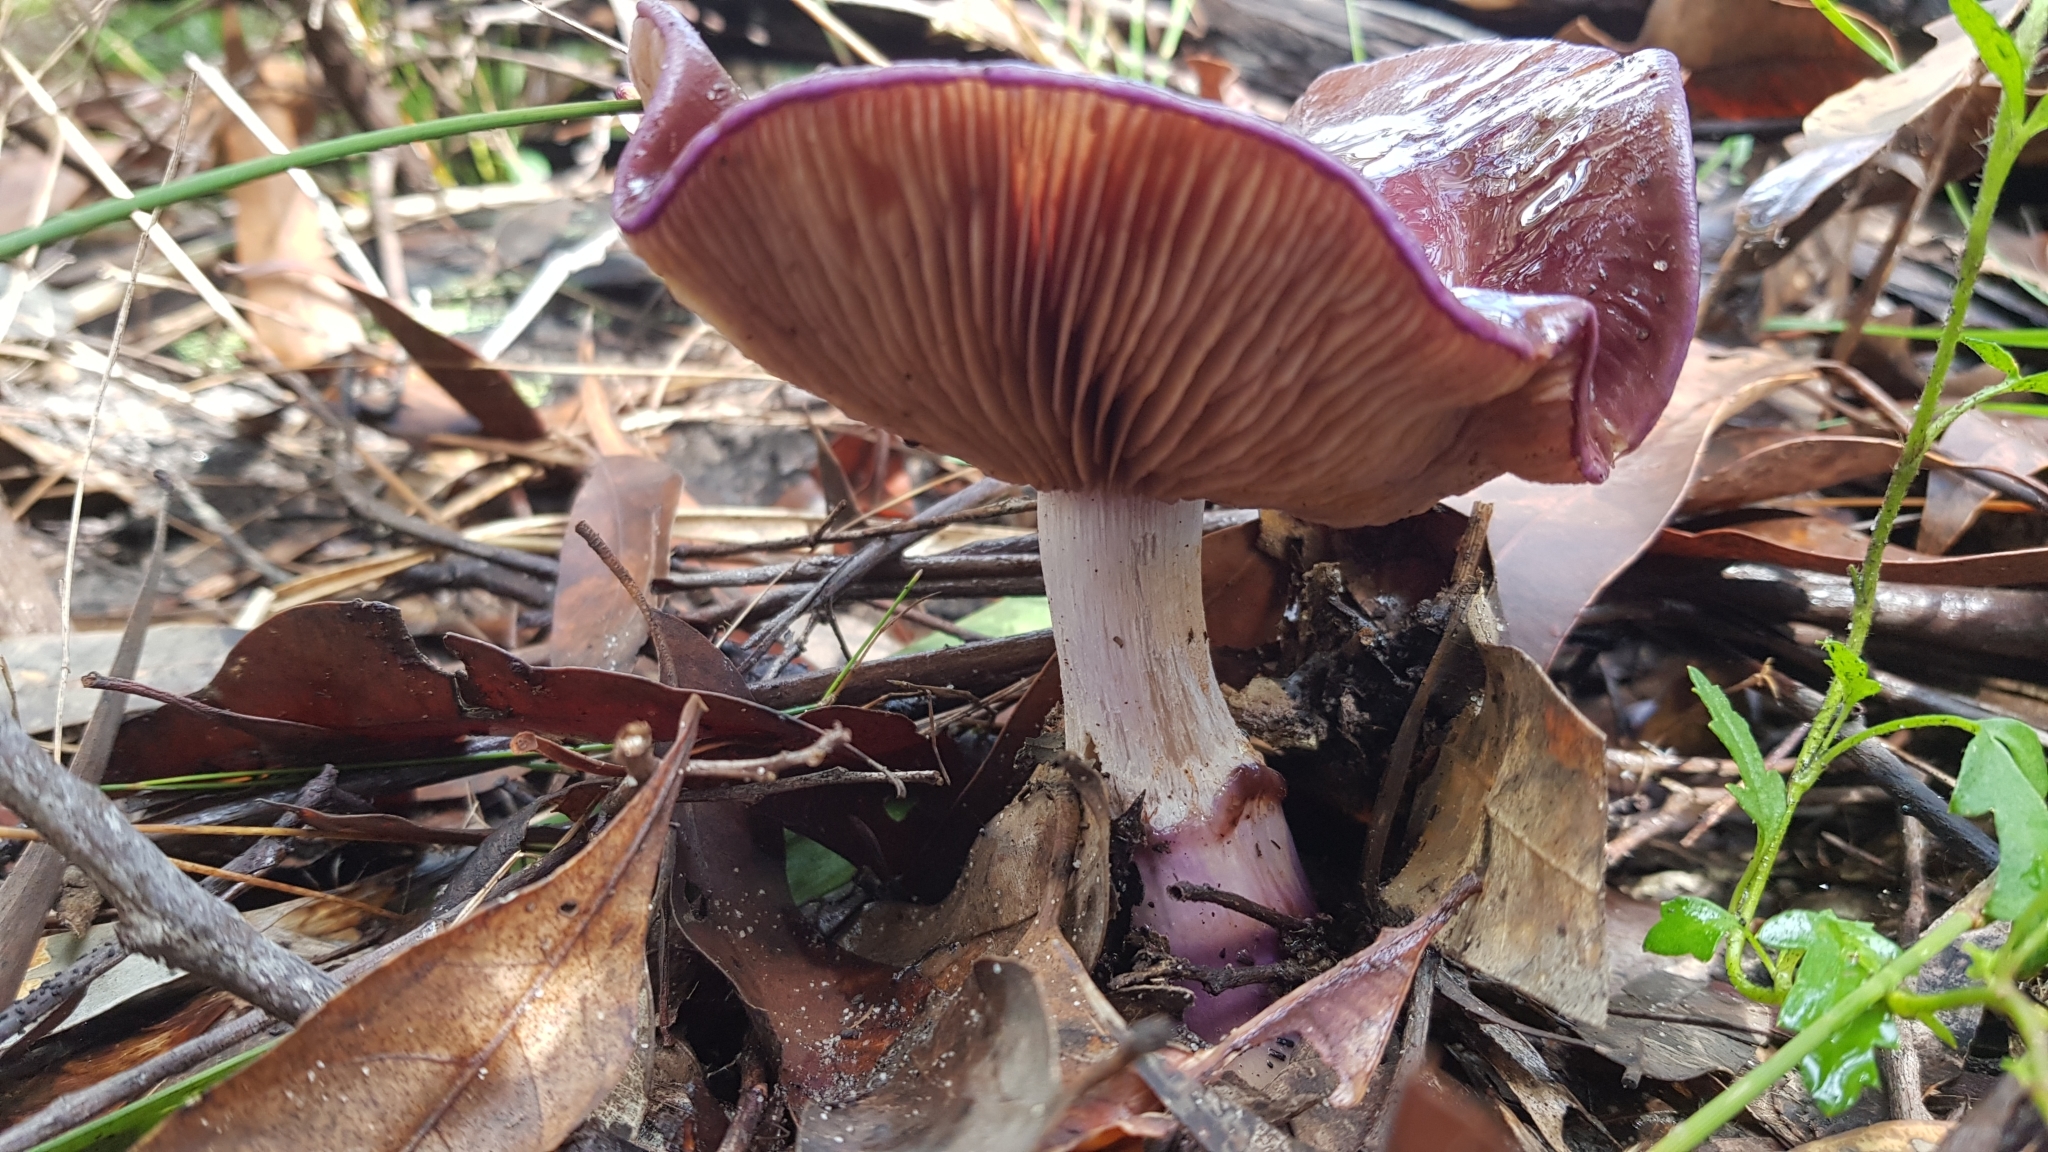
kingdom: Fungi
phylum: Basidiomycota
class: Agaricomycetes
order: Agaricales
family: Cortinariaceae
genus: Cortinarius
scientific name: Cortinarius archeri
